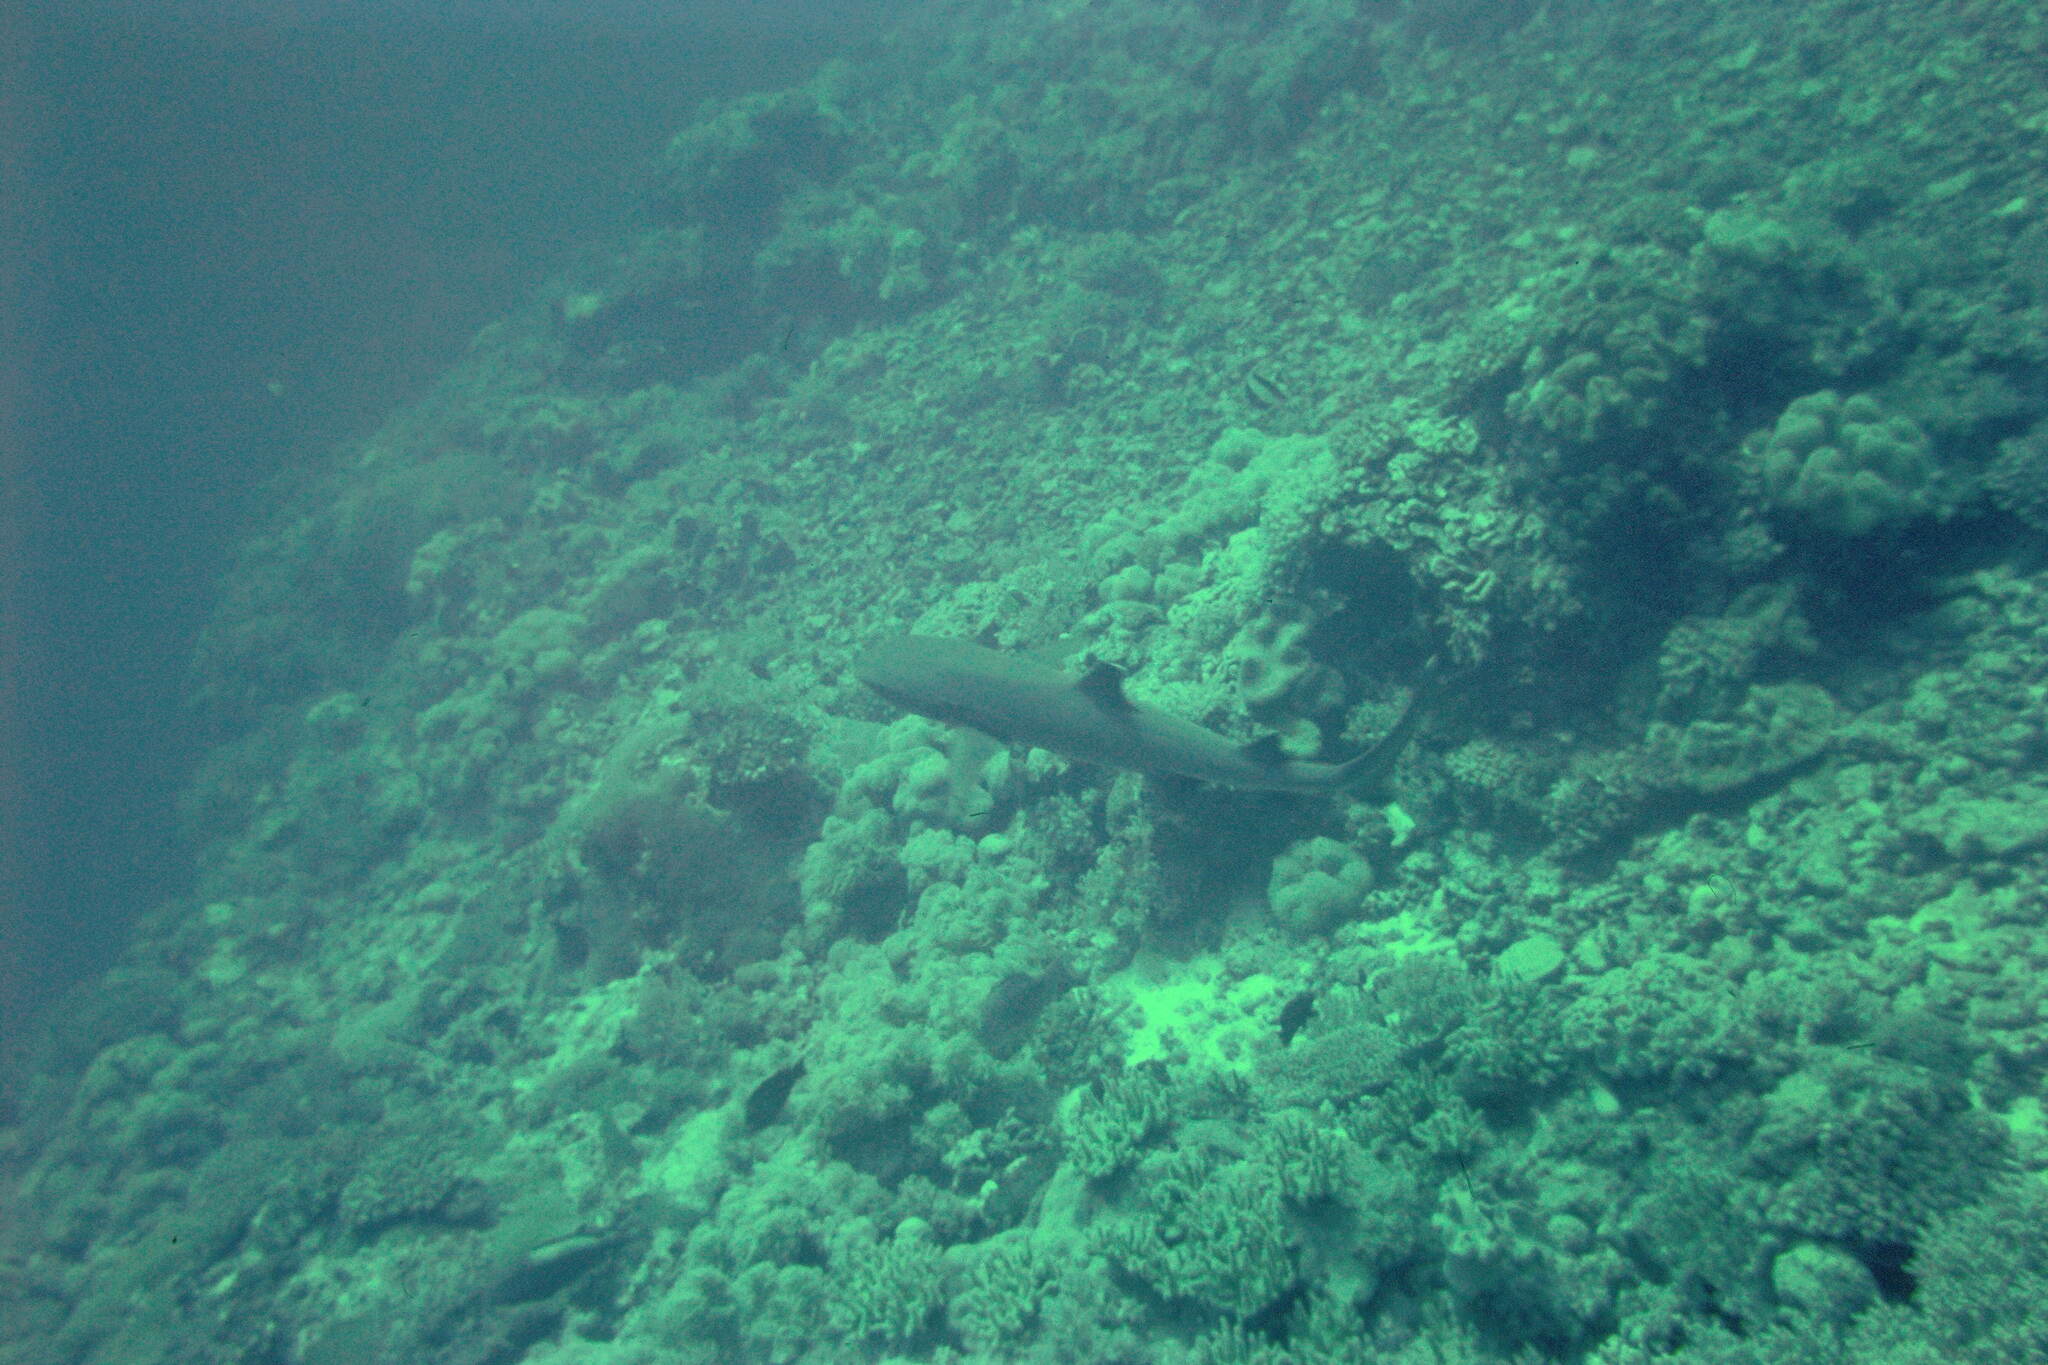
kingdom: Animalia
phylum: Chordata
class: Elasmobranchii
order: Carcharhiniformes
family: Carcharhinidae
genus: Triaenodon
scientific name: Triaenodon obesus
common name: Whitetip reef shark
